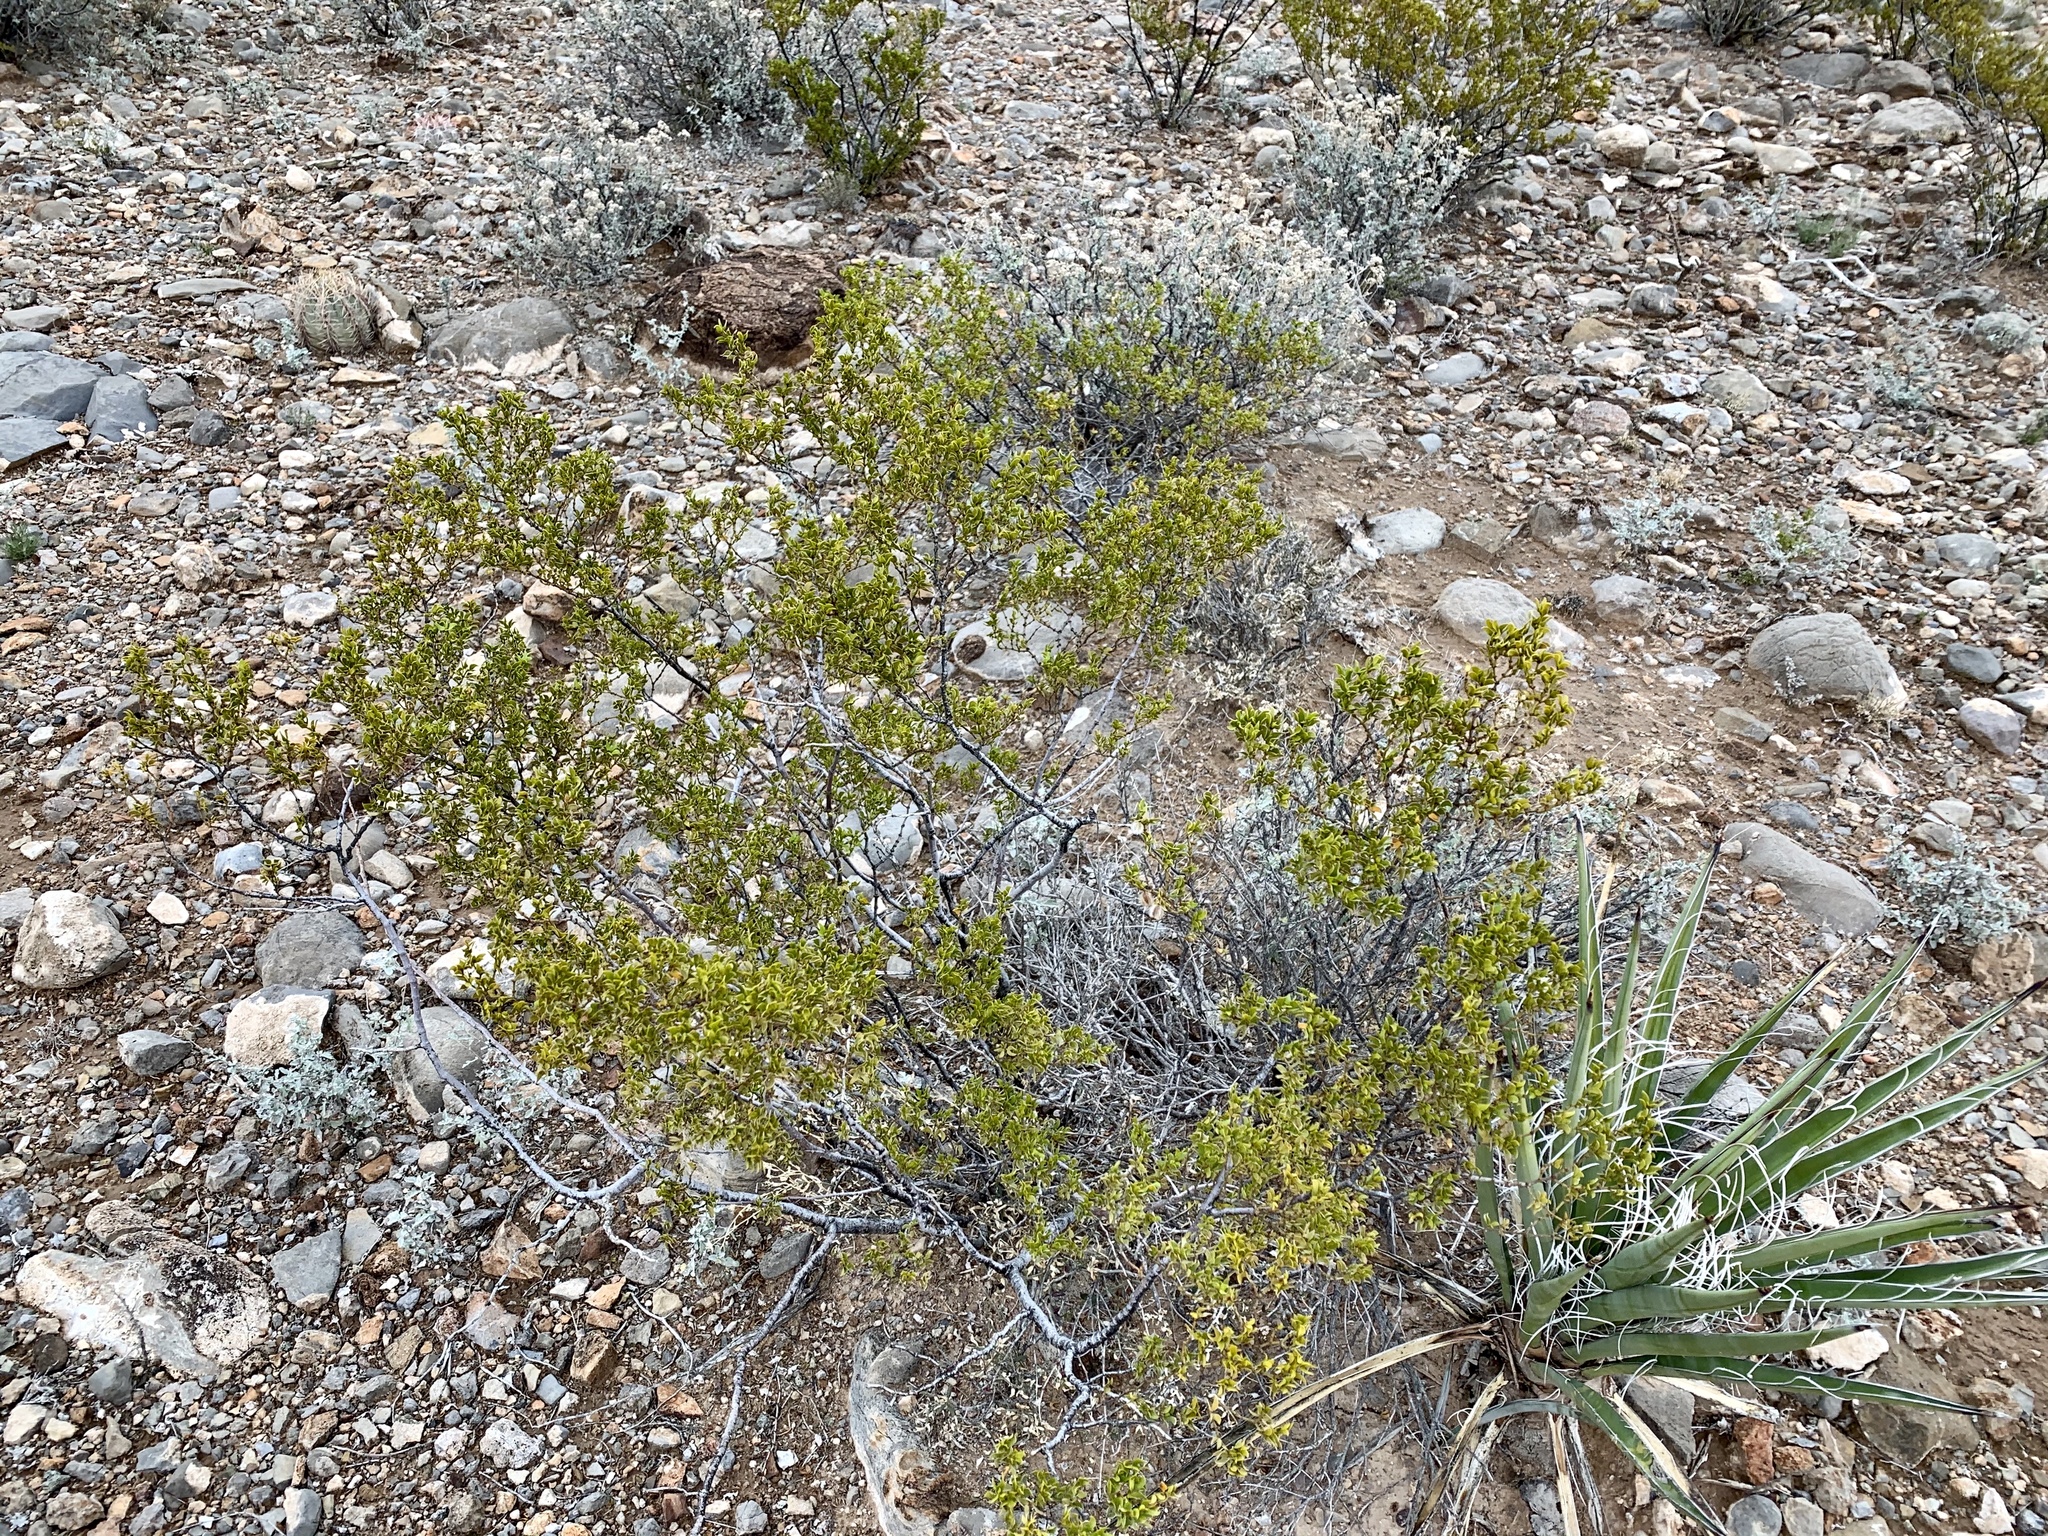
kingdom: Plantae
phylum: Tracheophyta
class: Magnoliopsida
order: Zygophyllales
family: Zygophyllaceae
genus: Larrea
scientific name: Larrea tridentata
